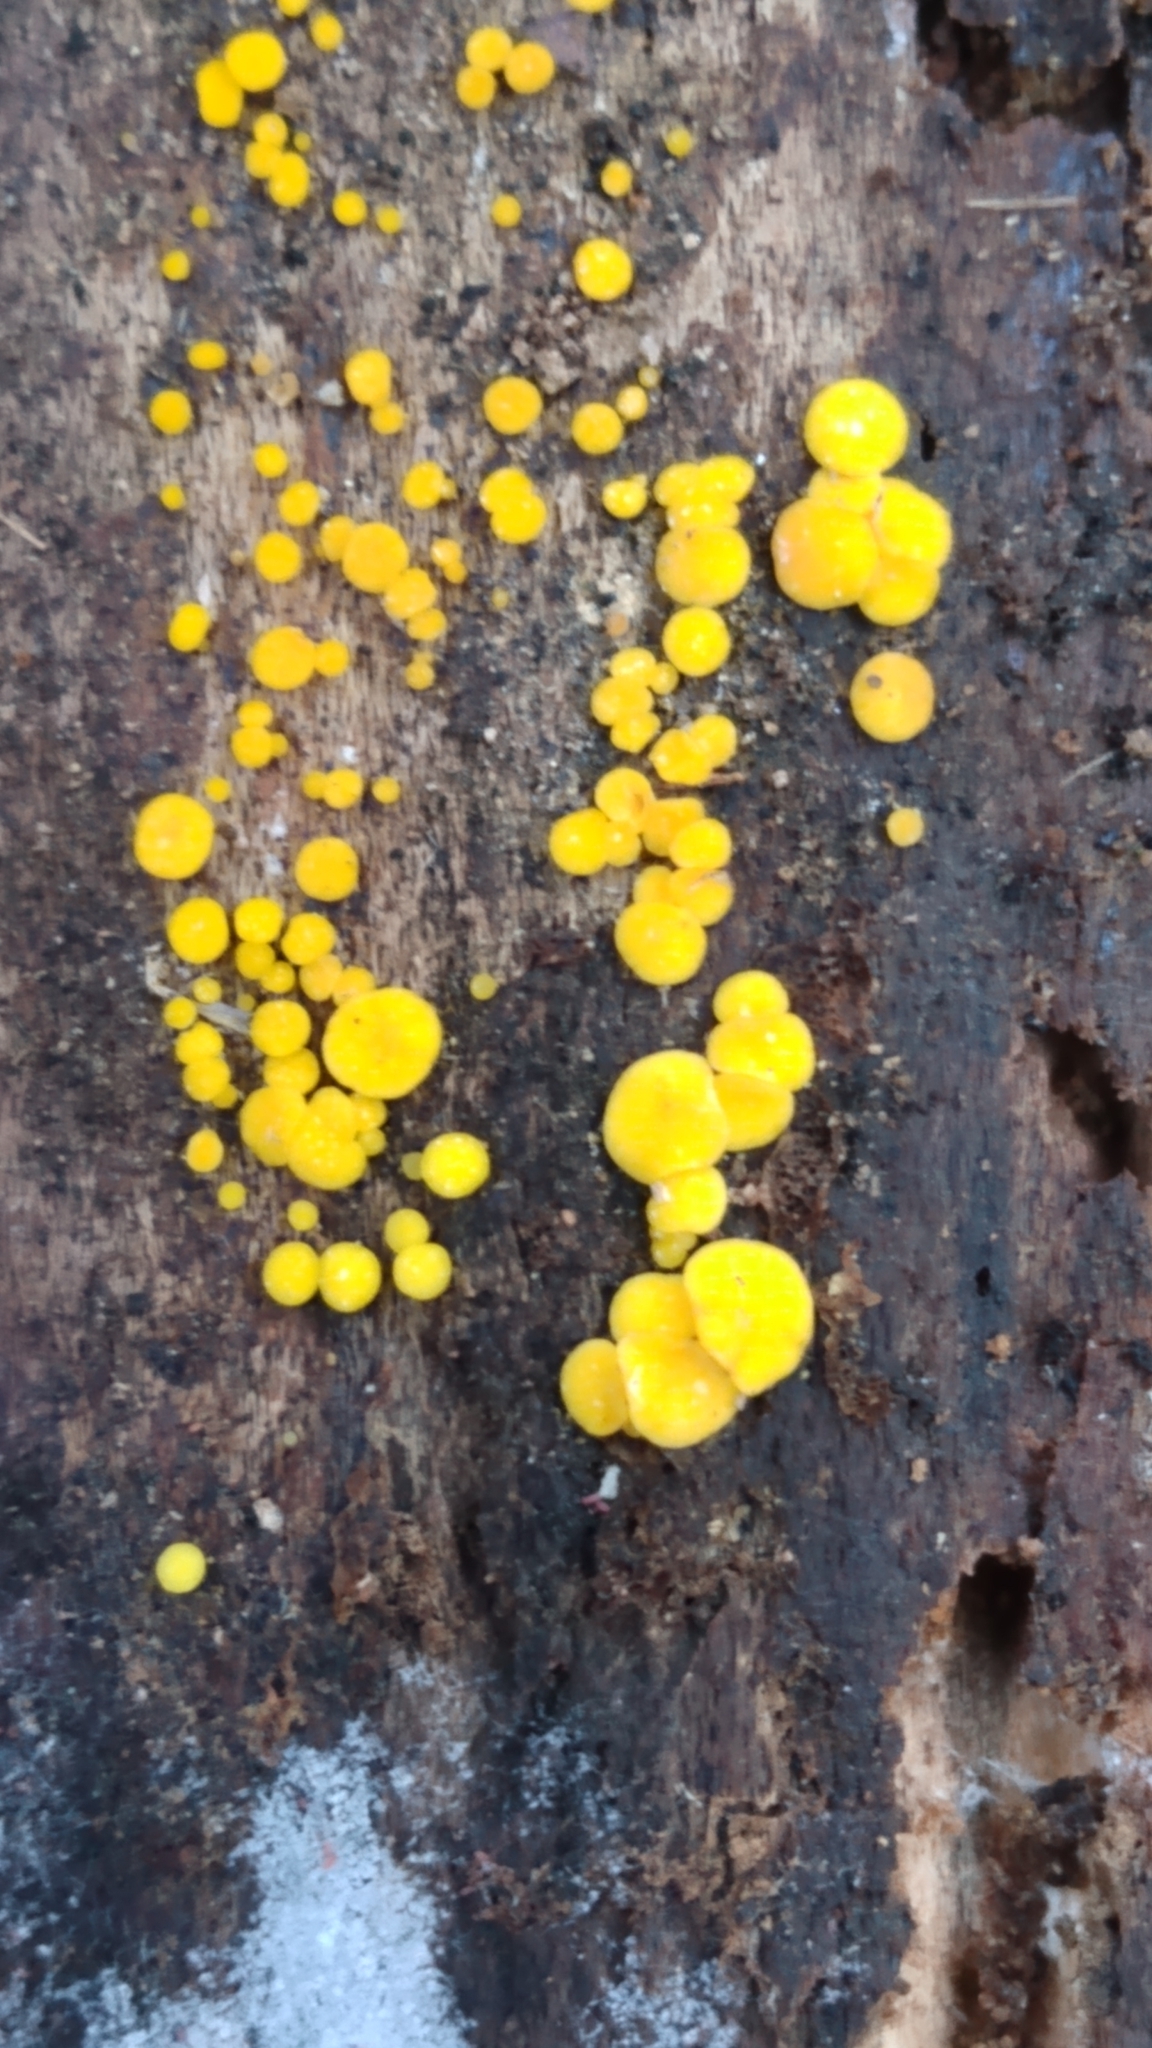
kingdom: Fungi
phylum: Ascomycota
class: Leotiomycetes
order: Helotiales
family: Pezizellaceae
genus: Calycina
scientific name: Calycina citrina
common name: Yellow fairy cups
